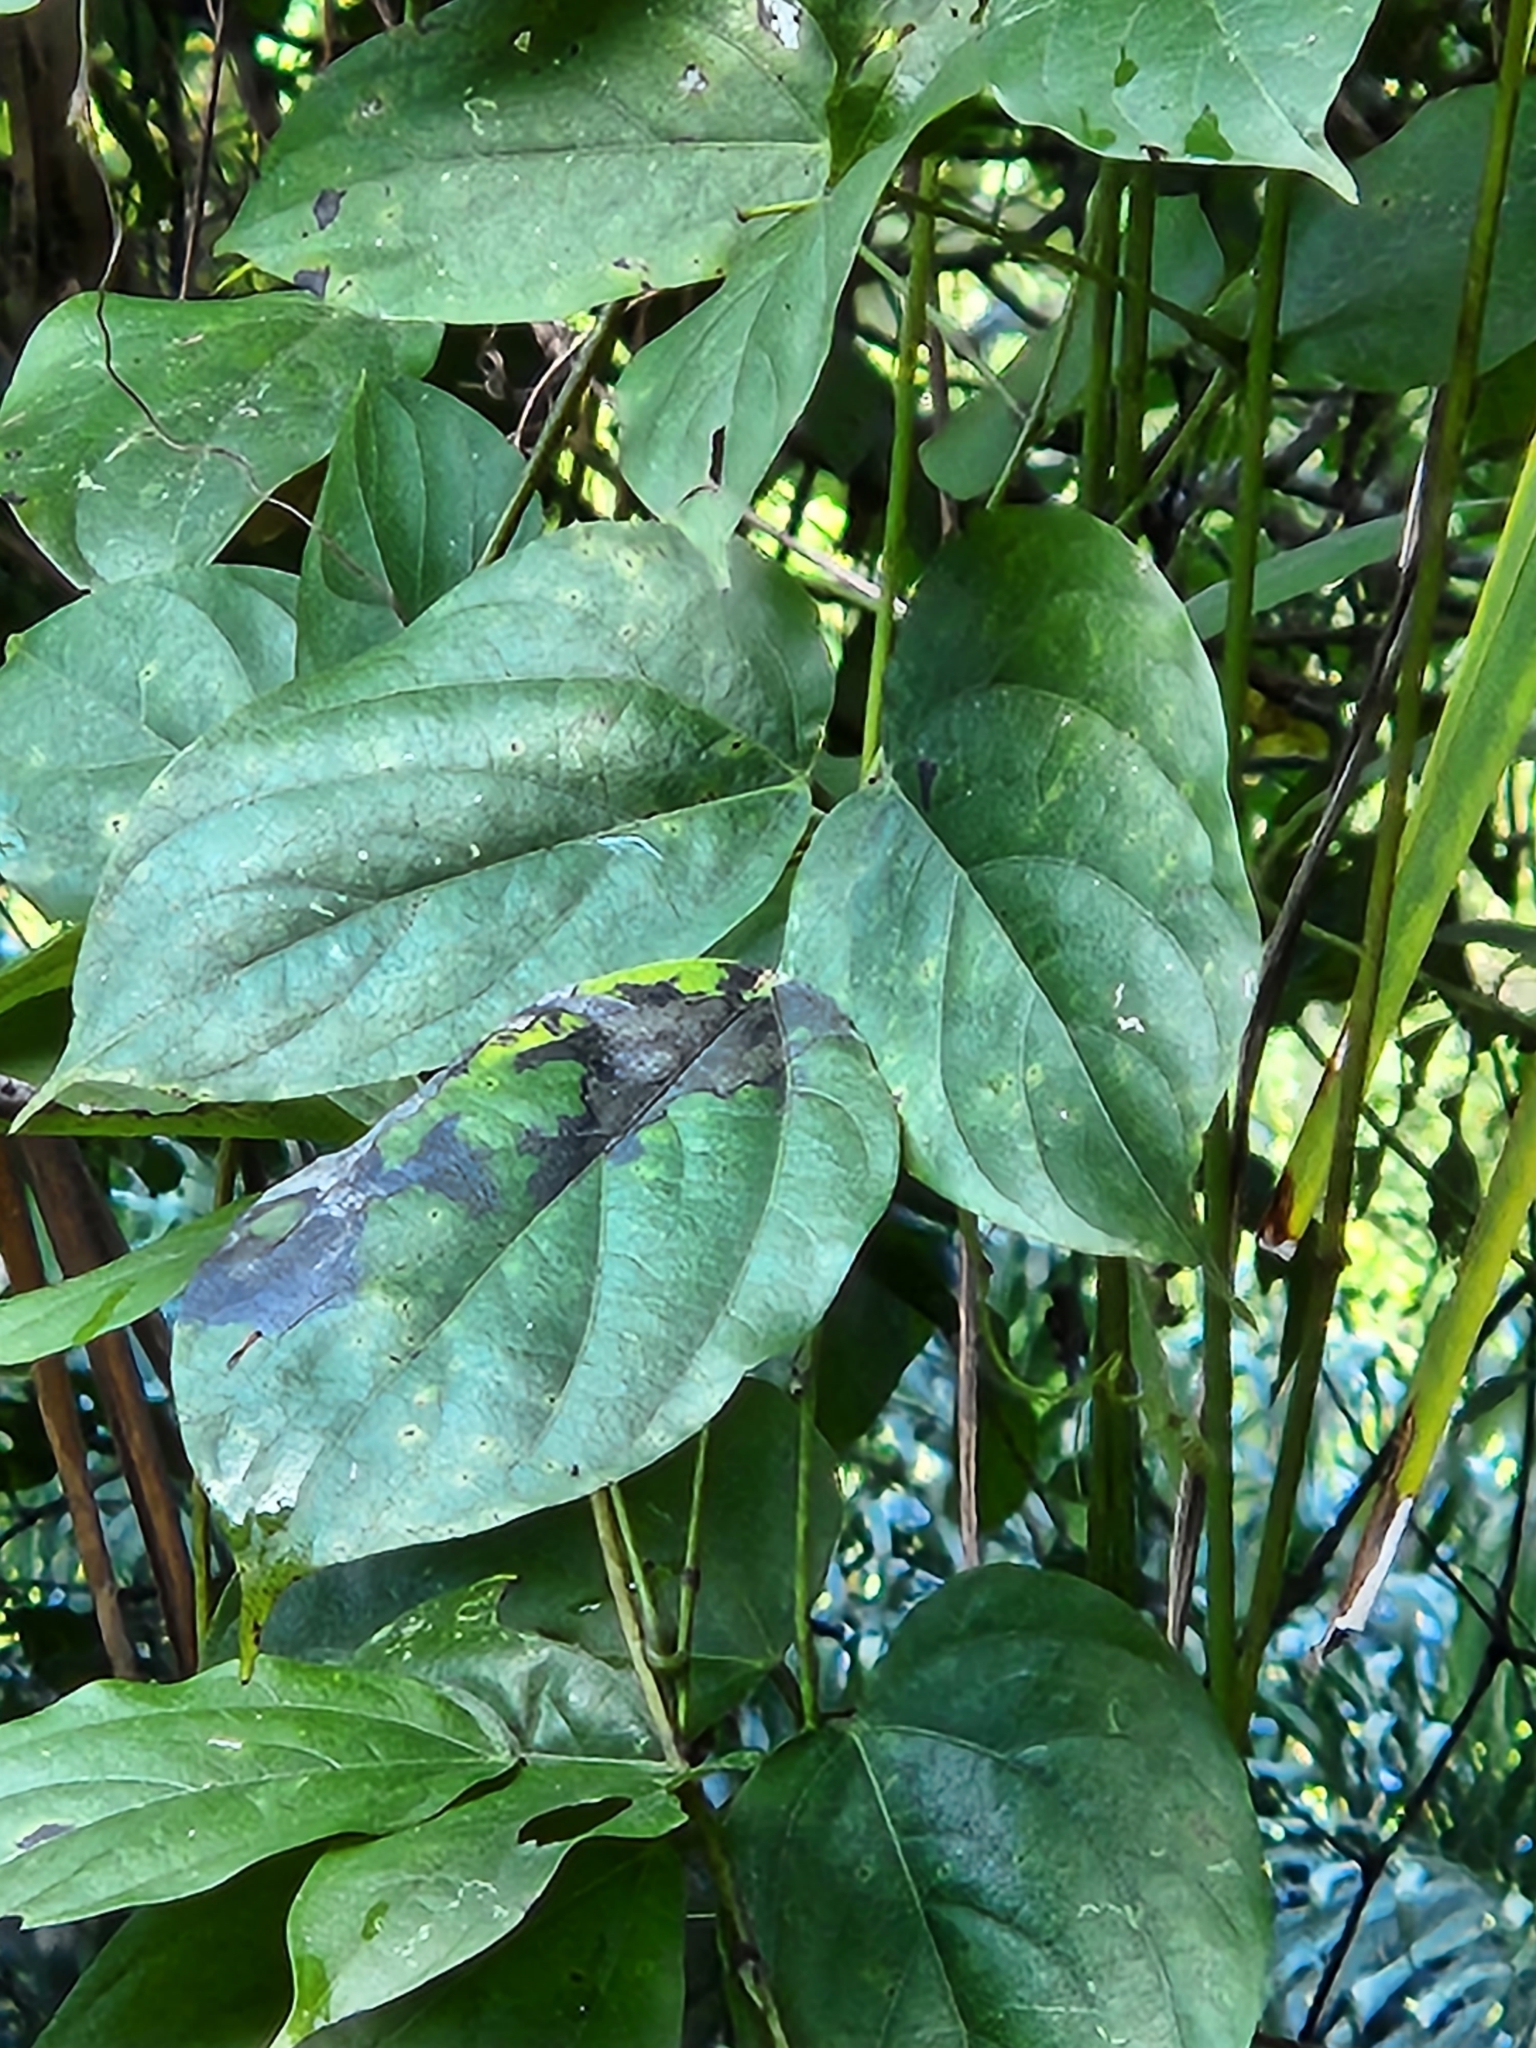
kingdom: Plantae
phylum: Tracheophyta
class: Magnoliopsida
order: Fabales
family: Fabaceae
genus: Mucuna
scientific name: Mucuna mutisiana
